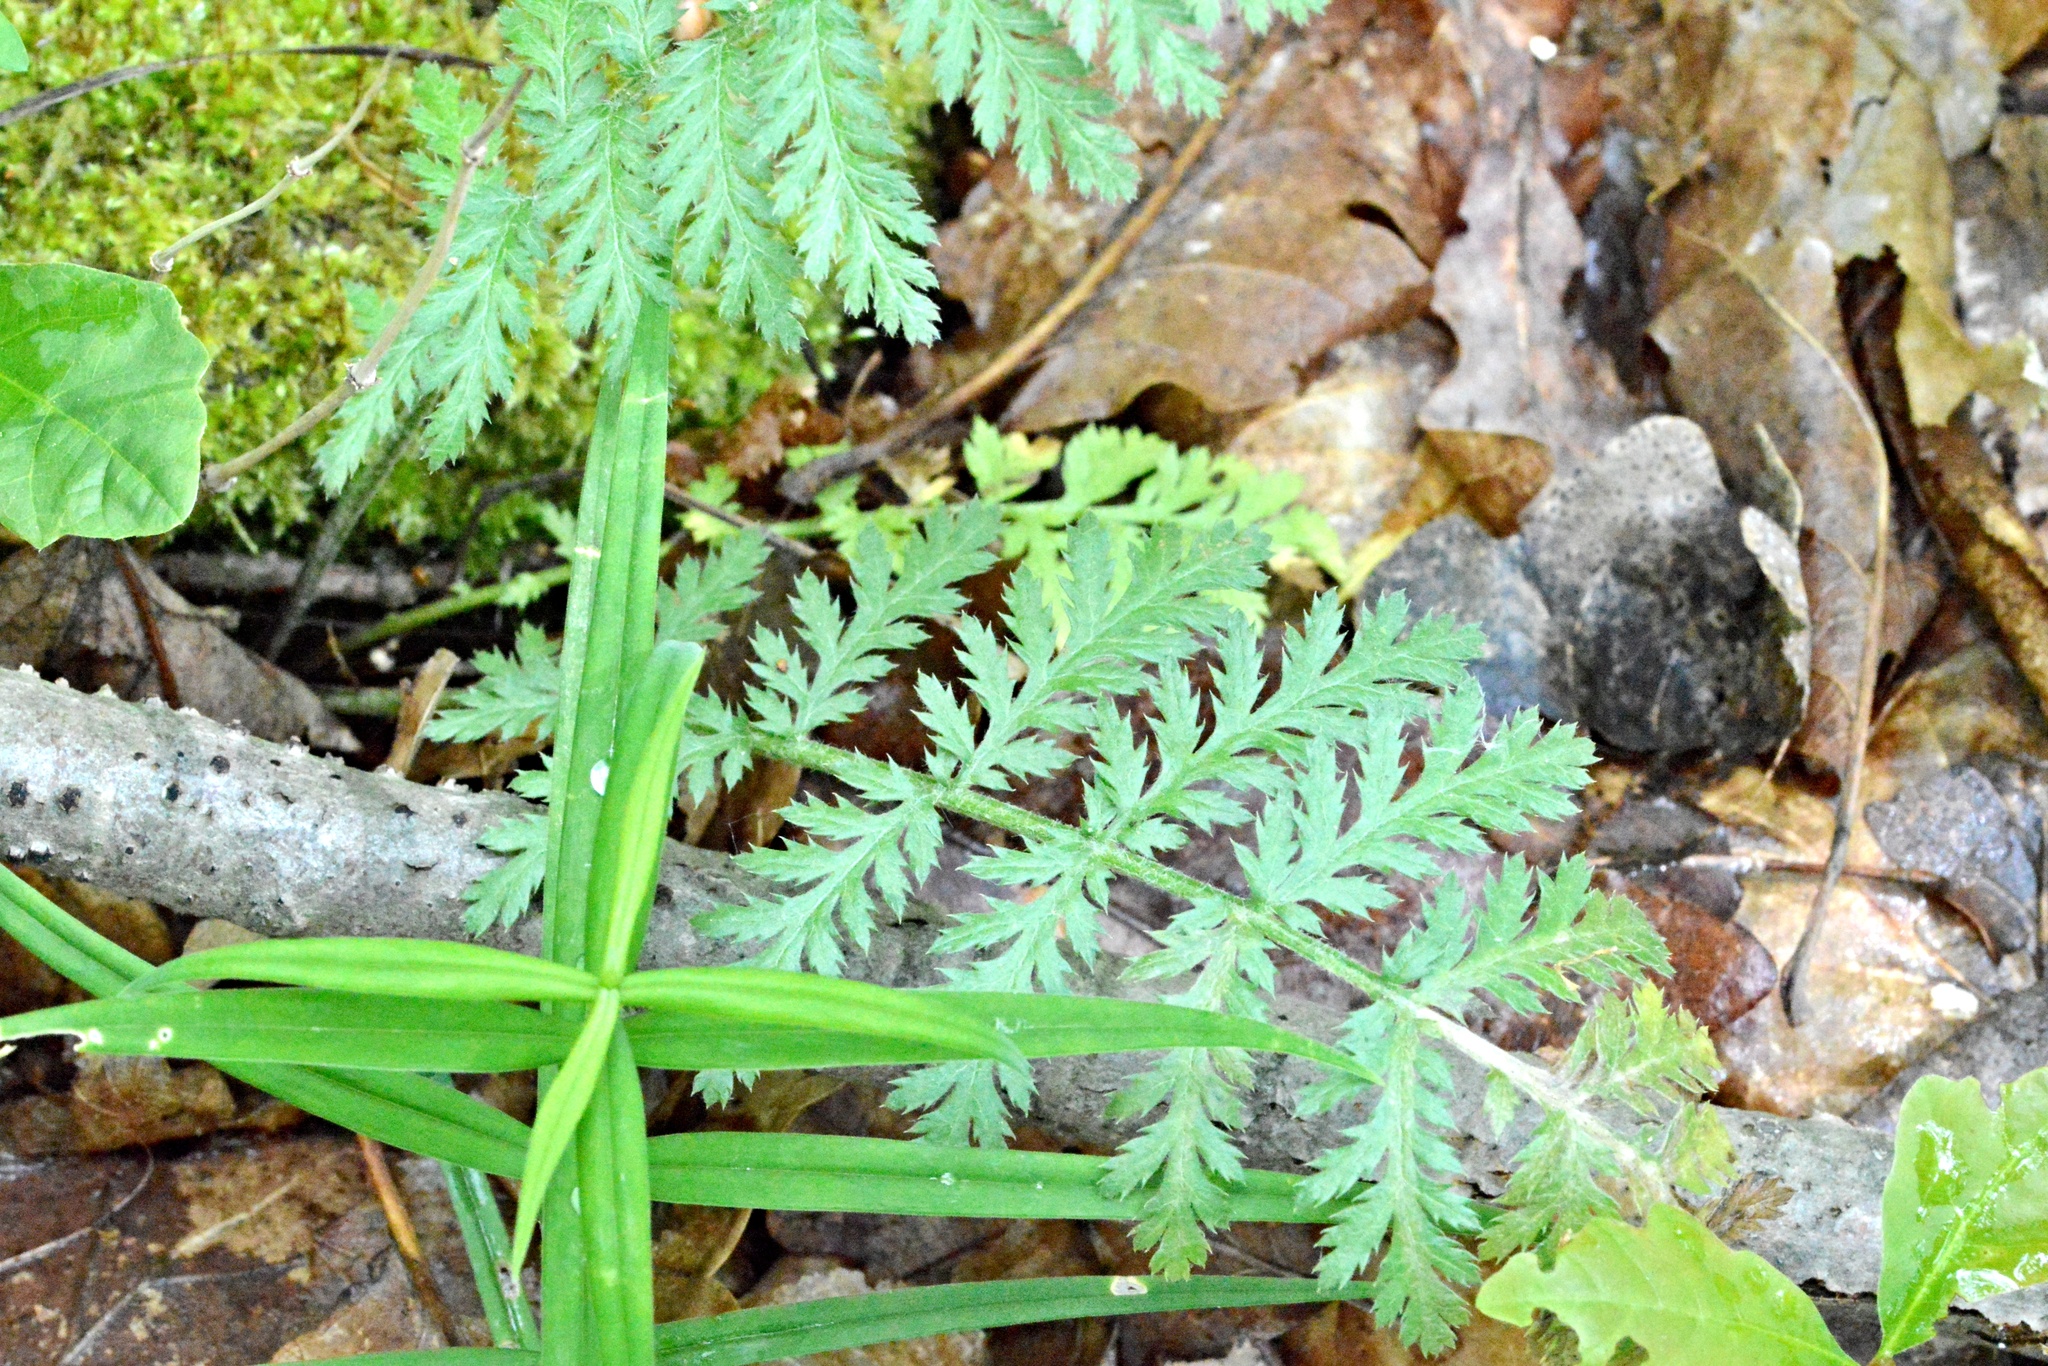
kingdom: Plantae
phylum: Tracheophyta
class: Magnoliopsida
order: Asterales
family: Asteraceae
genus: Tanacetum
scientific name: Tanacetum corymbosum
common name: Scentless feverfew
